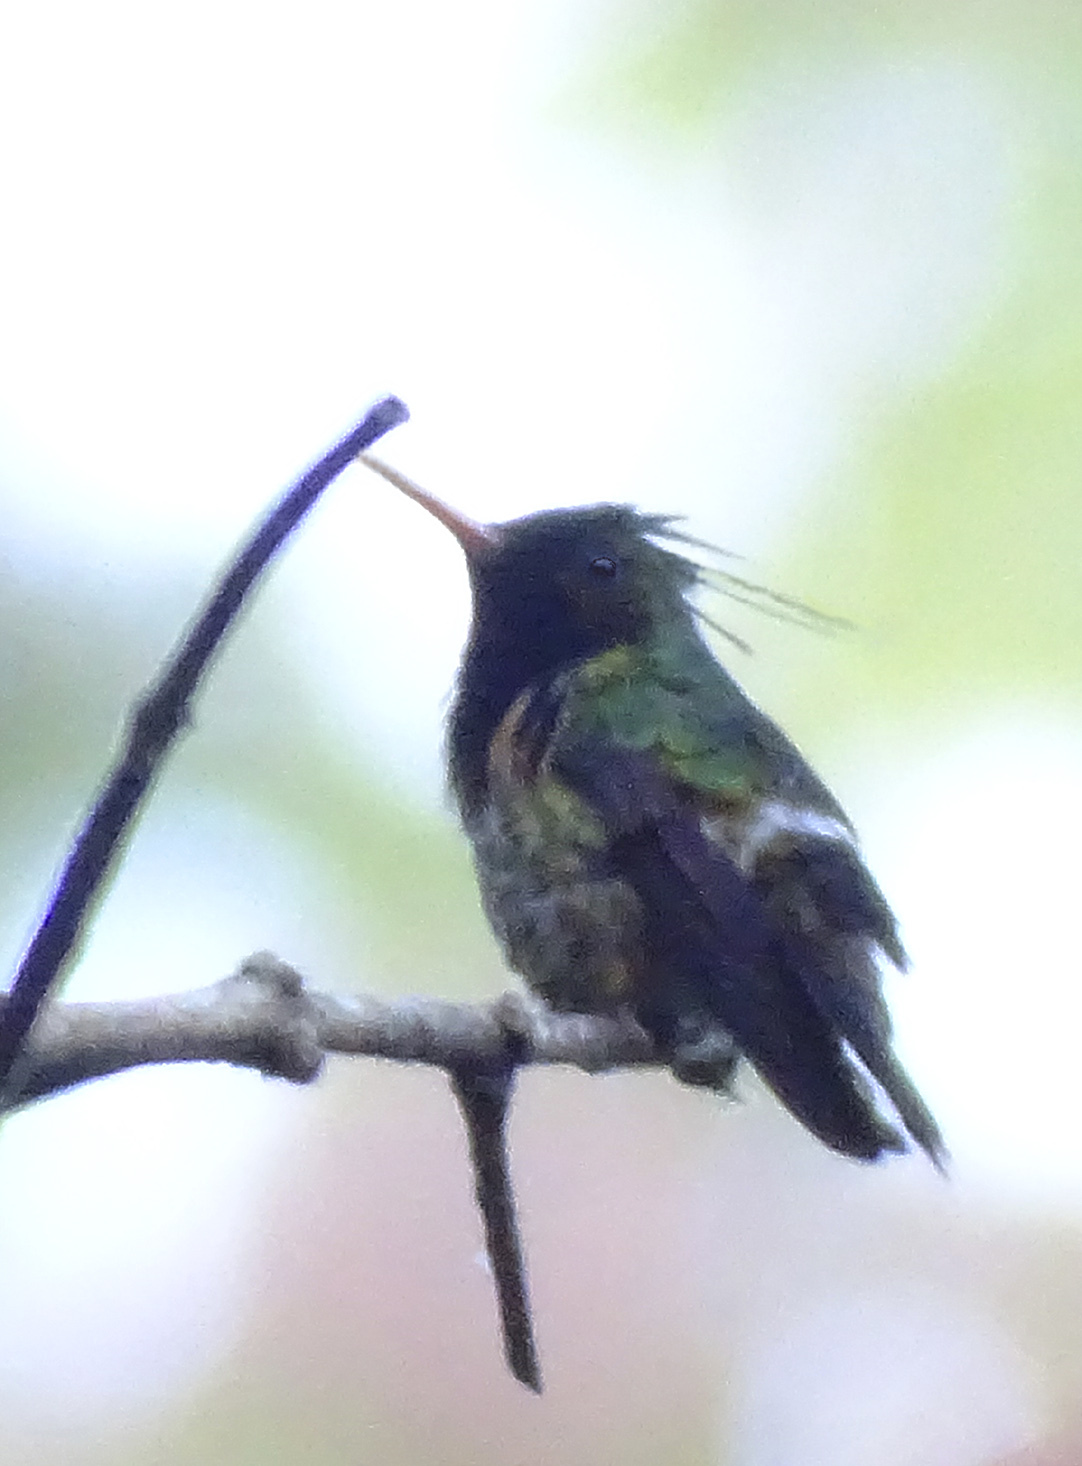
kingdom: Animalia
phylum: Chordata
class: Aves
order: Apodiformes
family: Trochilidae
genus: Lophornis
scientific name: Lophornis helenae
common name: Black-crested coquette
